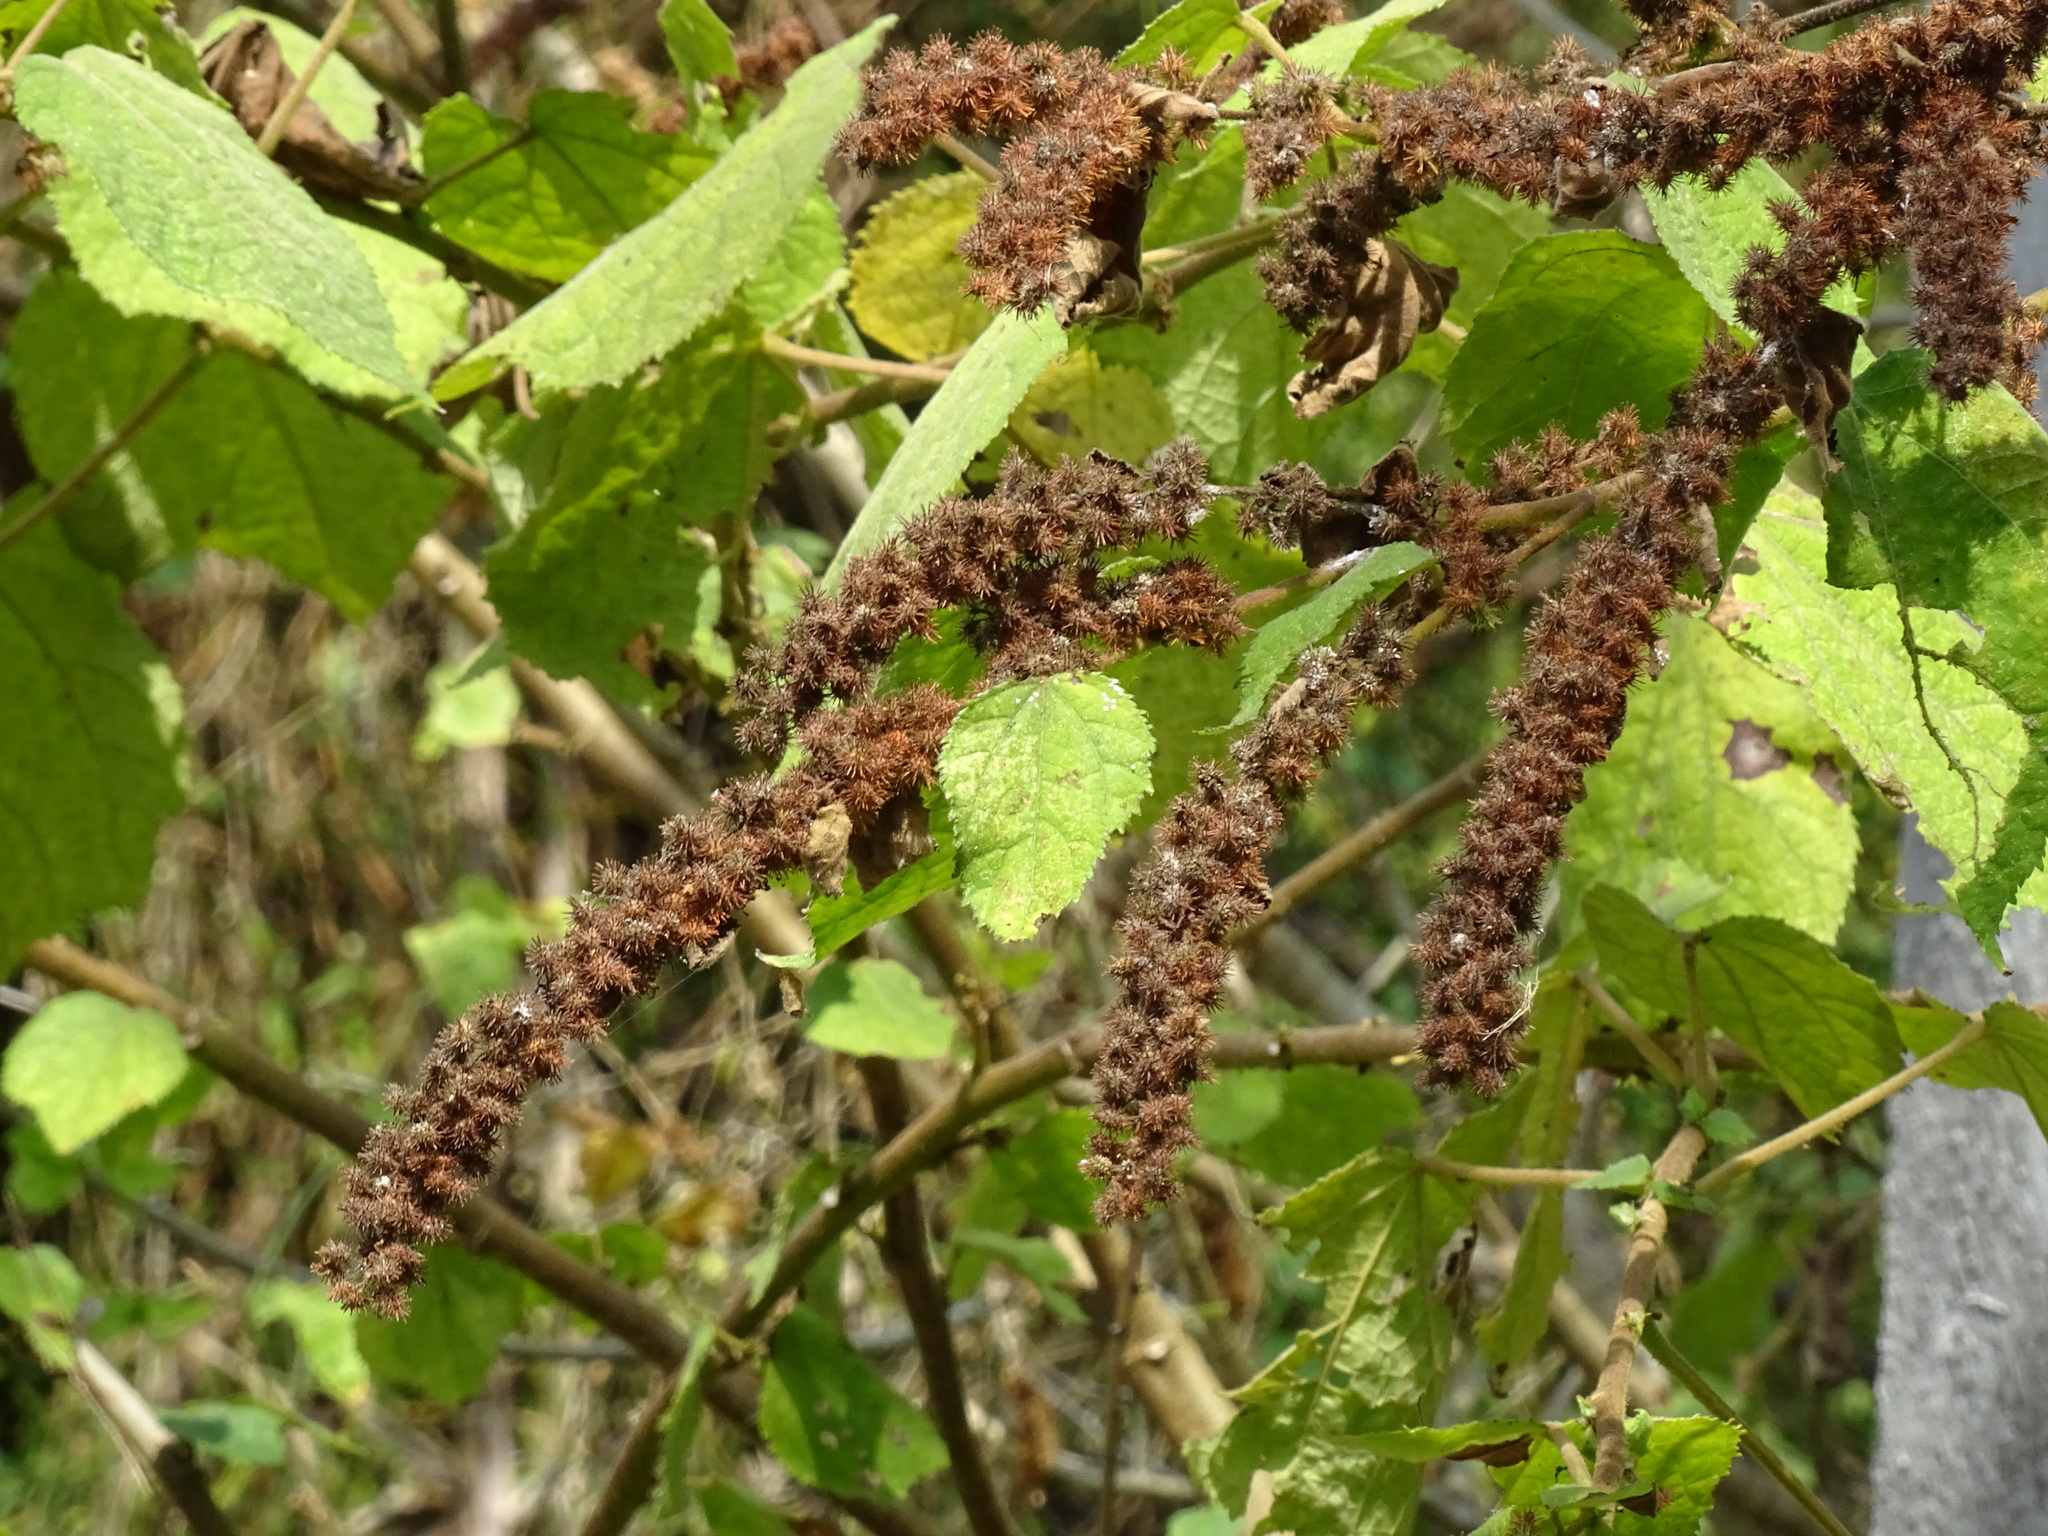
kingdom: Plantae
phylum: Tracheophyta
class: Magnoliopsida
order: Malvales
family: Malvaceae
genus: Triumfetta
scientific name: Triumfetta semitriloba
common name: Sacramento burbark
